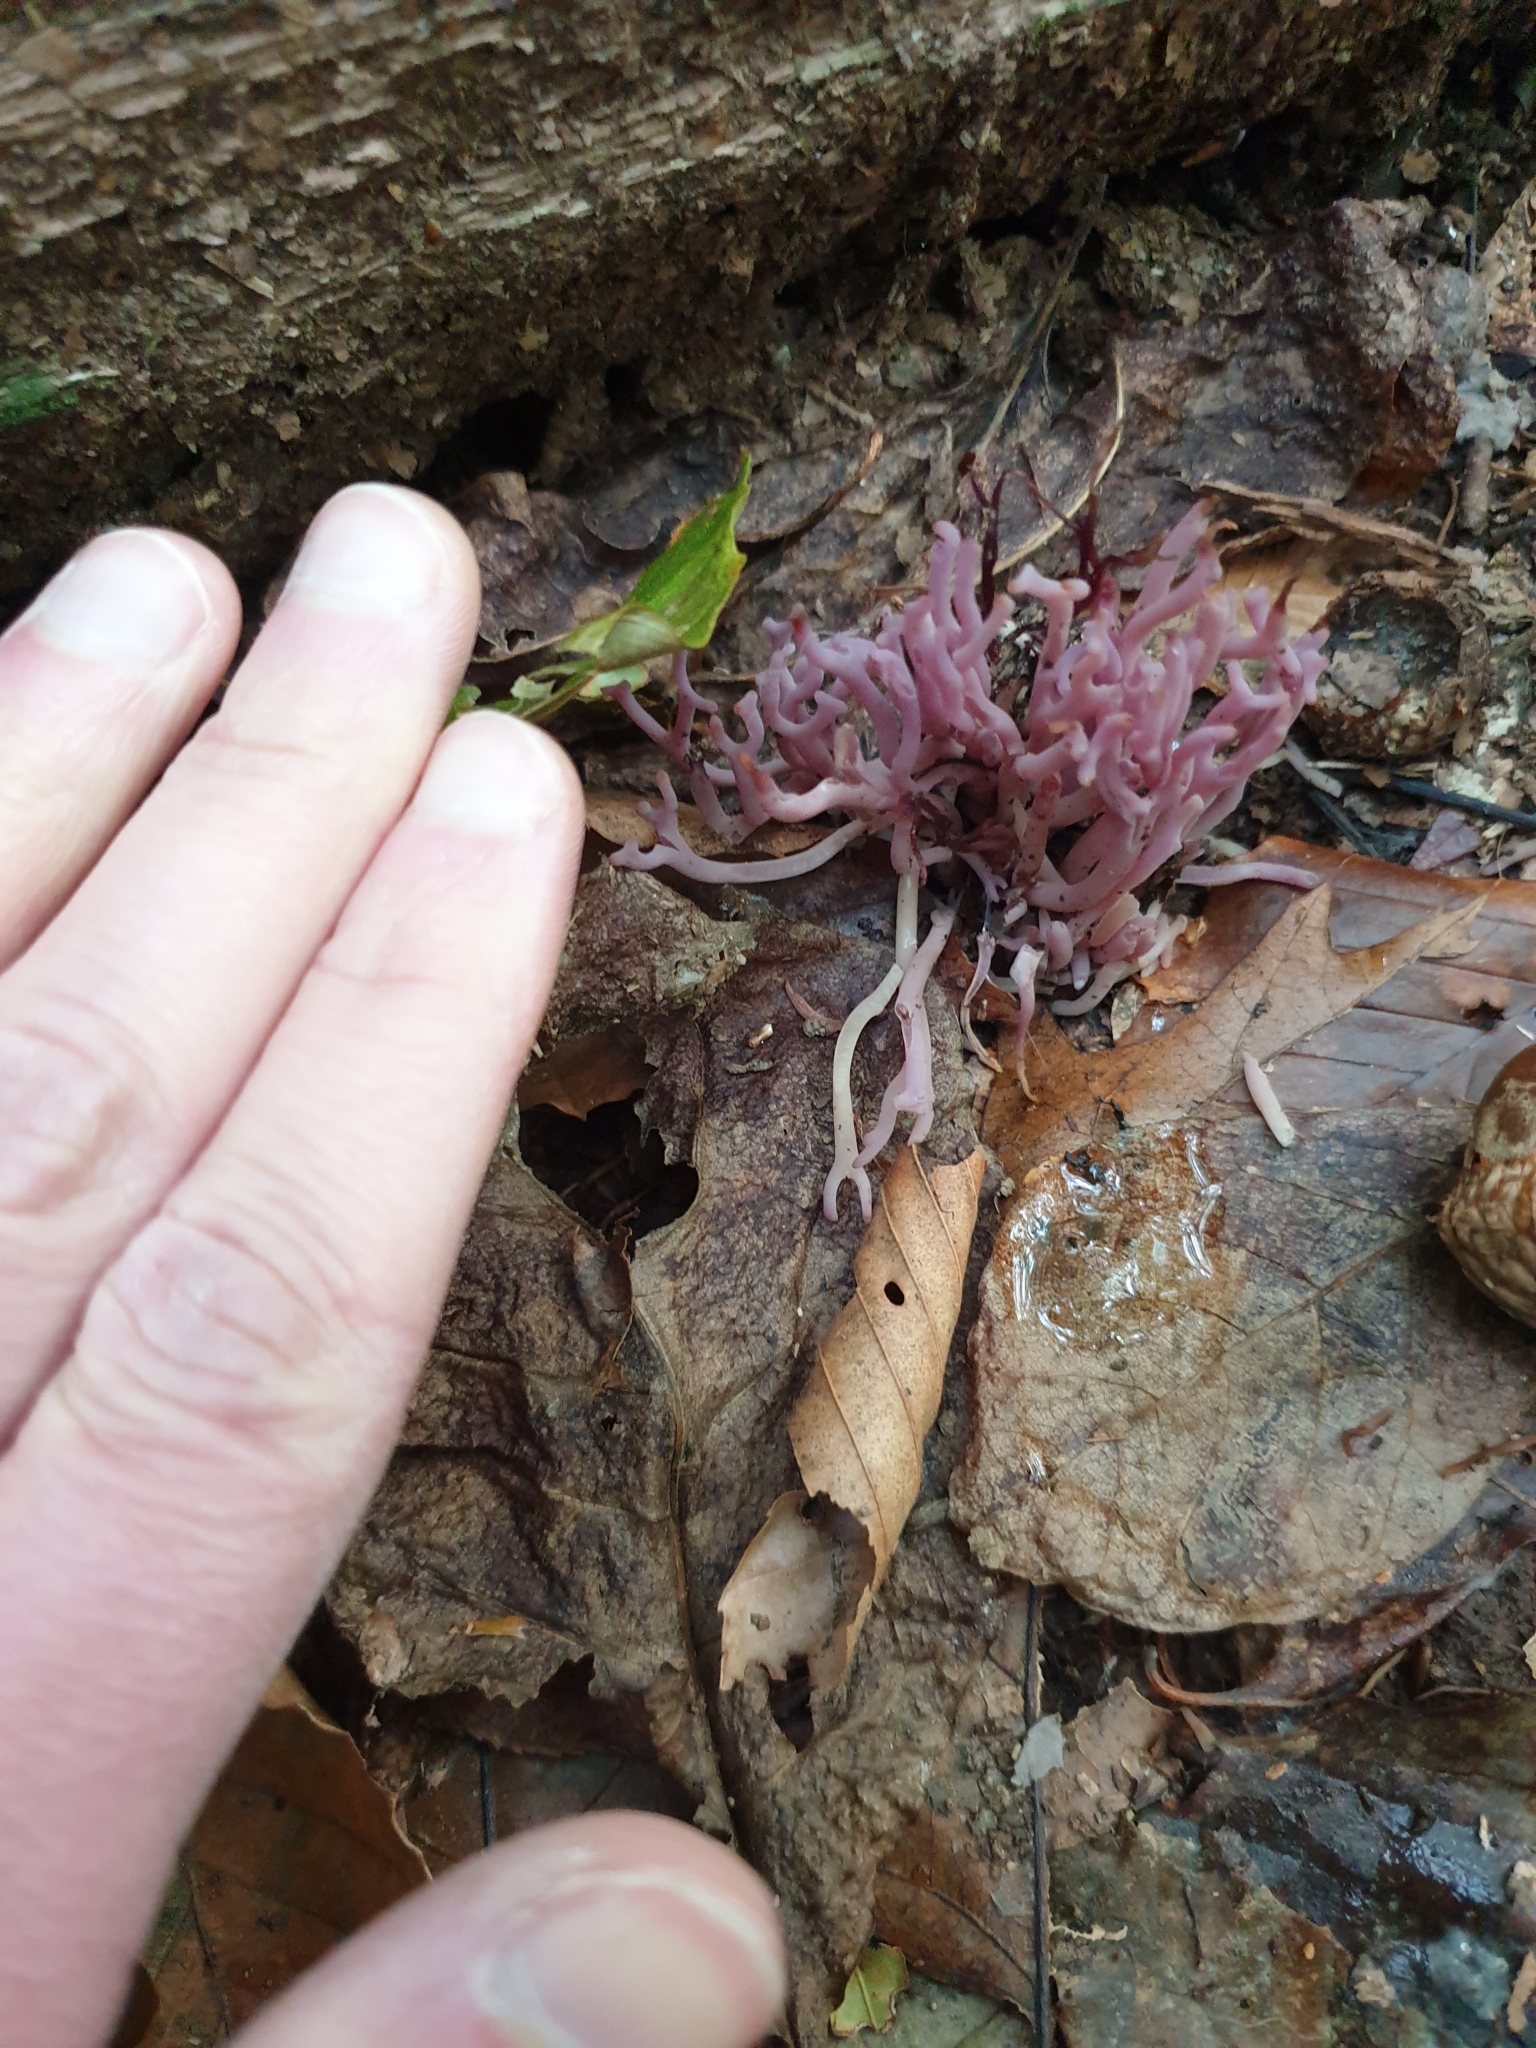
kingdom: Fungi
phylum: Basidiomycota
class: Agaricomycetes
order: Agaricales
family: Clavariaceae
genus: Clavaria
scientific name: Clavaria zollingeri
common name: Violet coral
